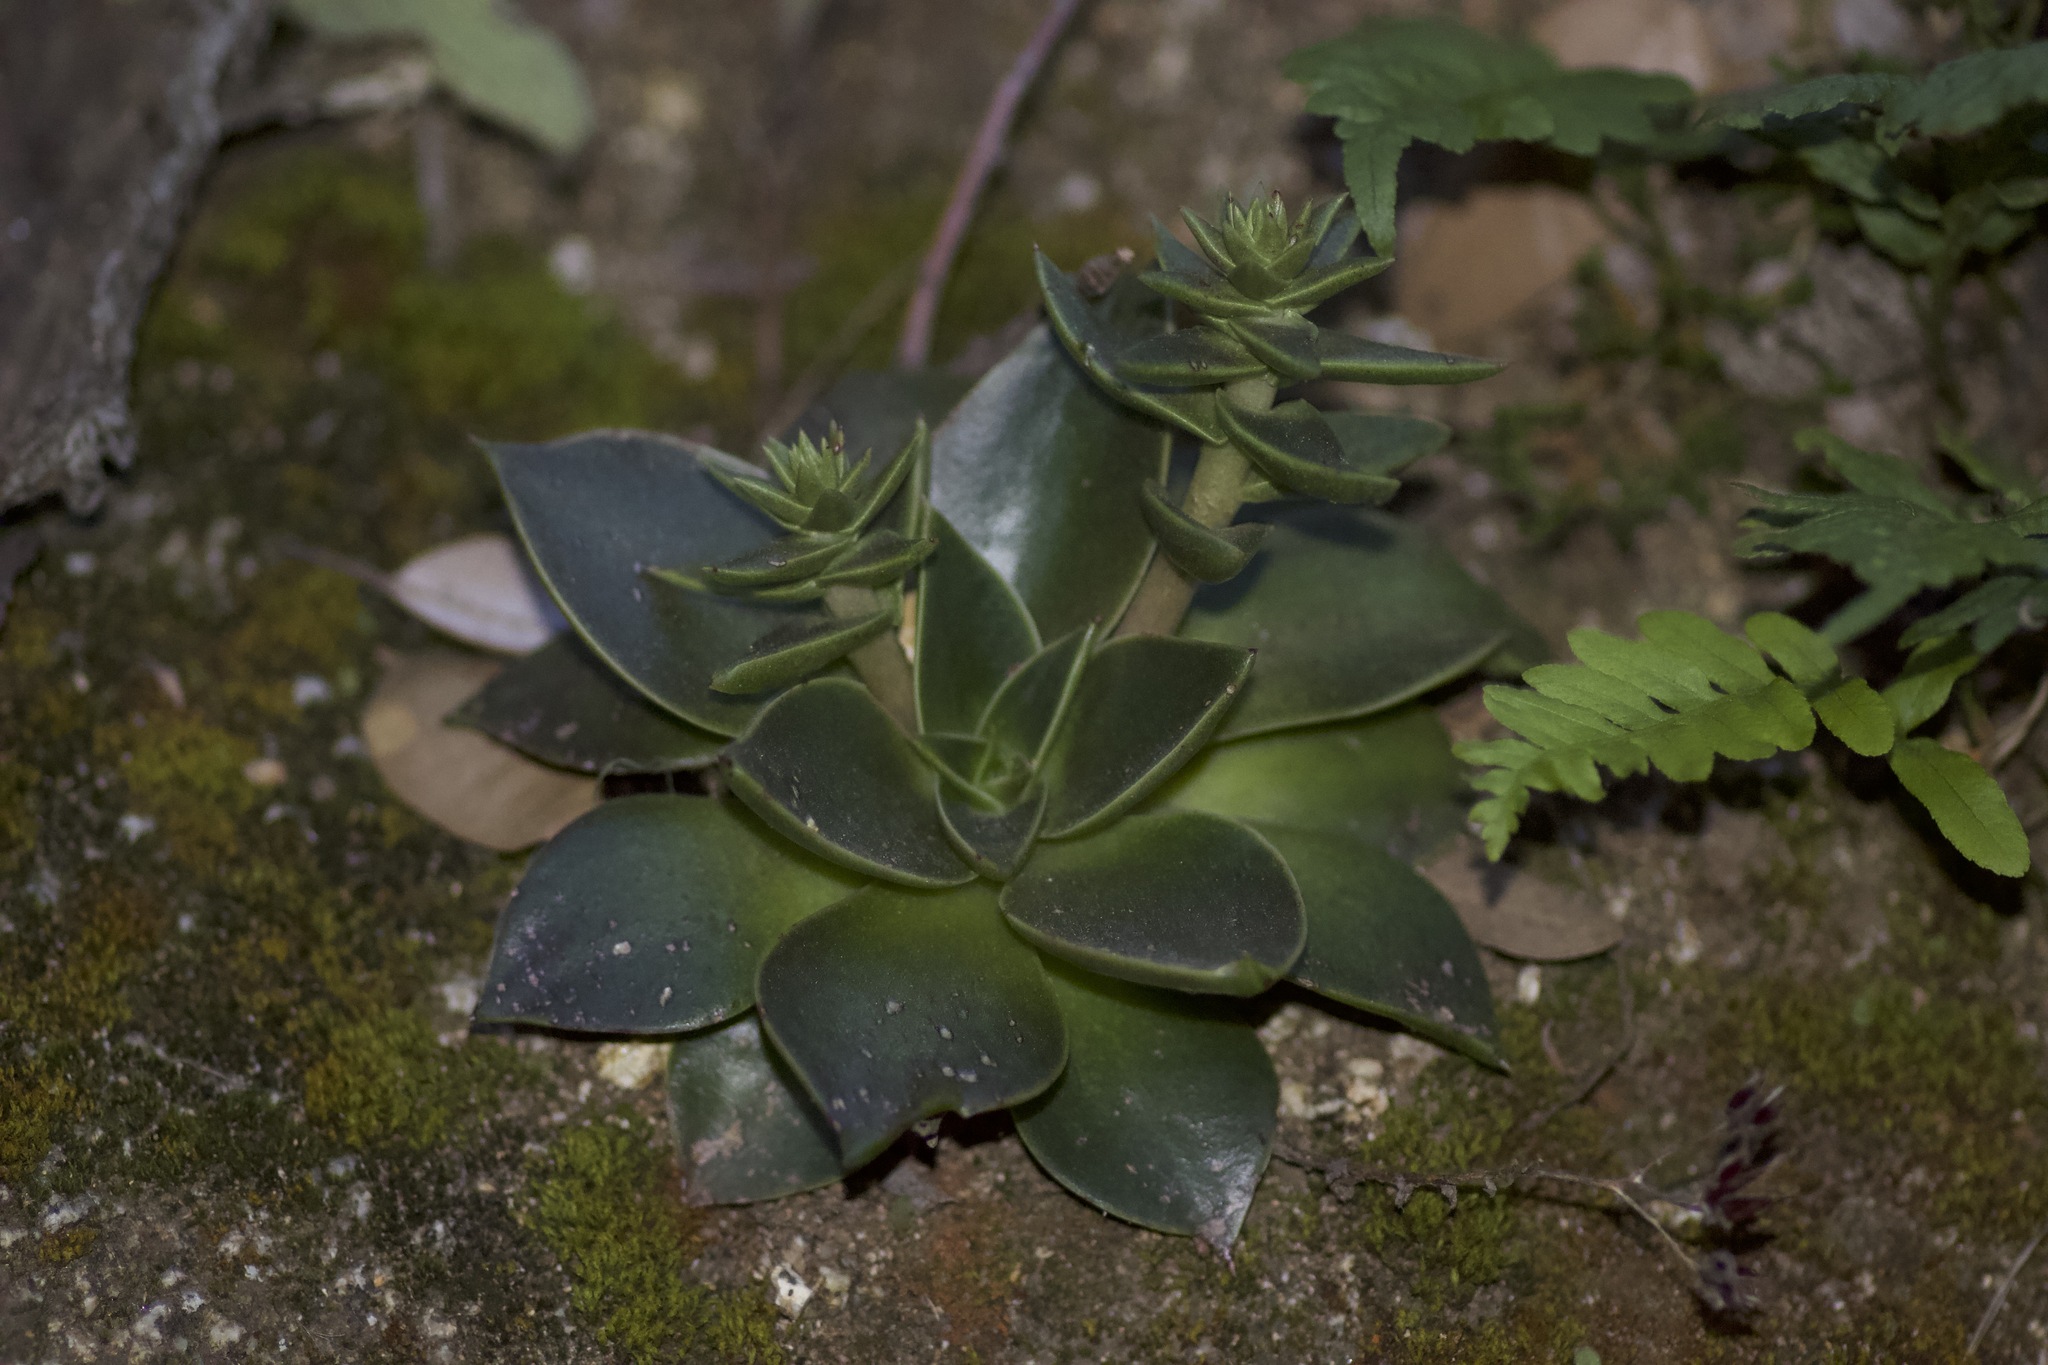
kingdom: Plantae
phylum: Tracheophyta
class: Magnoliopsida
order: Saxifragales
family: Crassulaceae
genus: Dudleya
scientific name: Dudleya lanceolata
